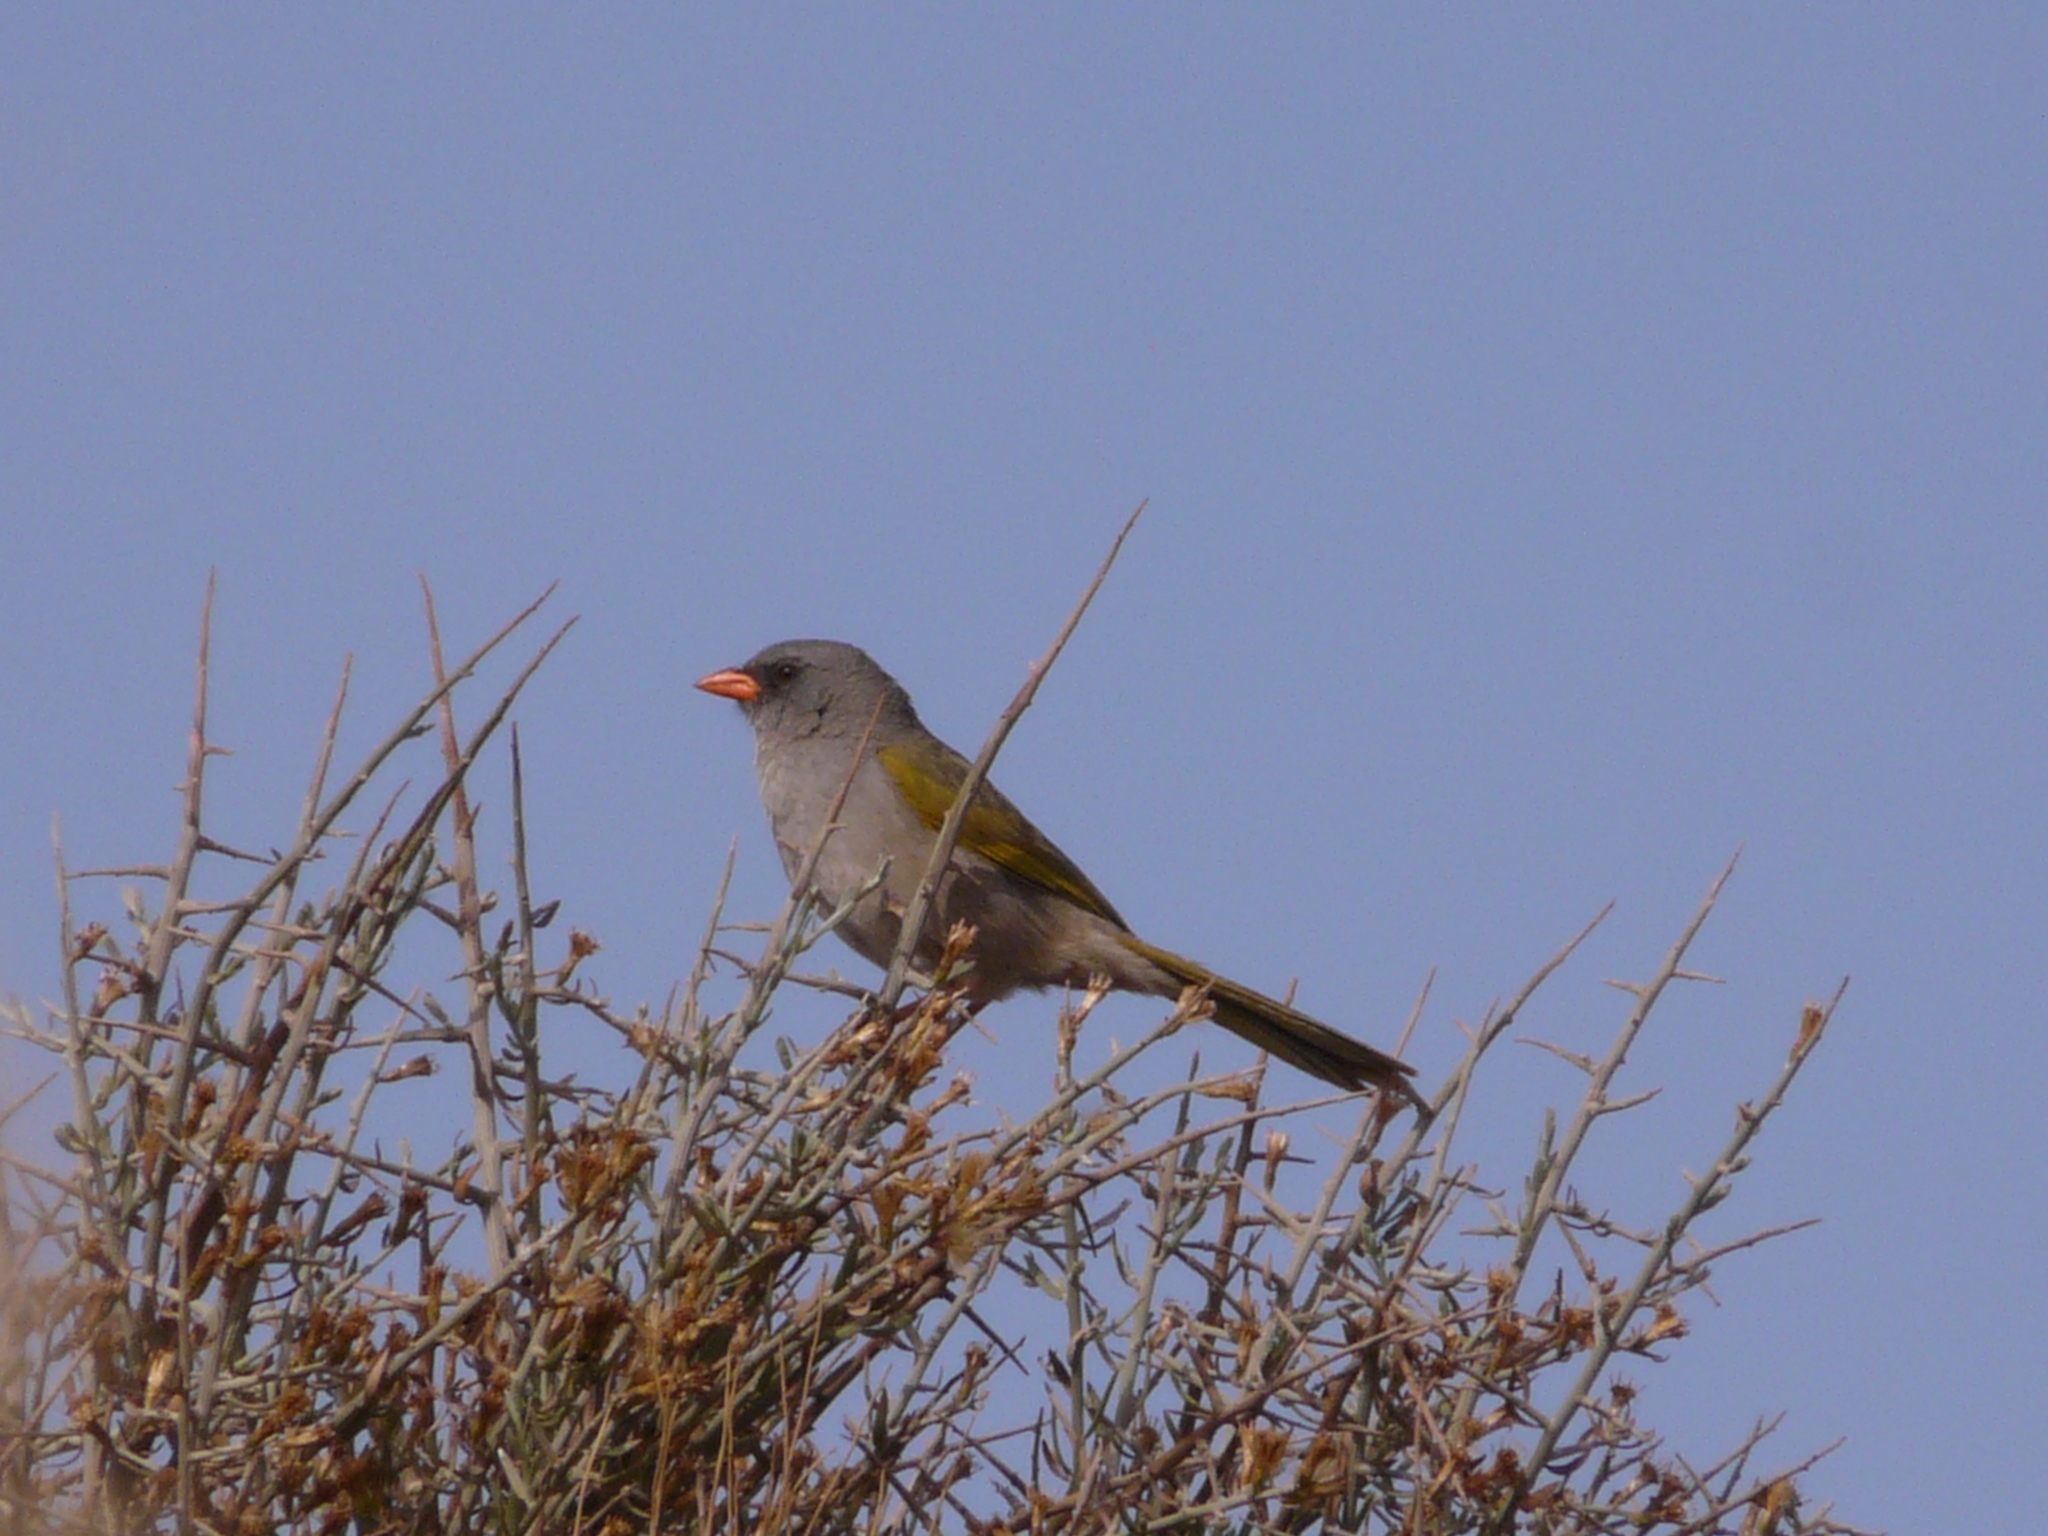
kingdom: Animalia
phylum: Chordata
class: Aves
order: Passeriformes
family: Thraupidae
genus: Embernagra
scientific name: Embernagra platensis
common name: Pampa finch
